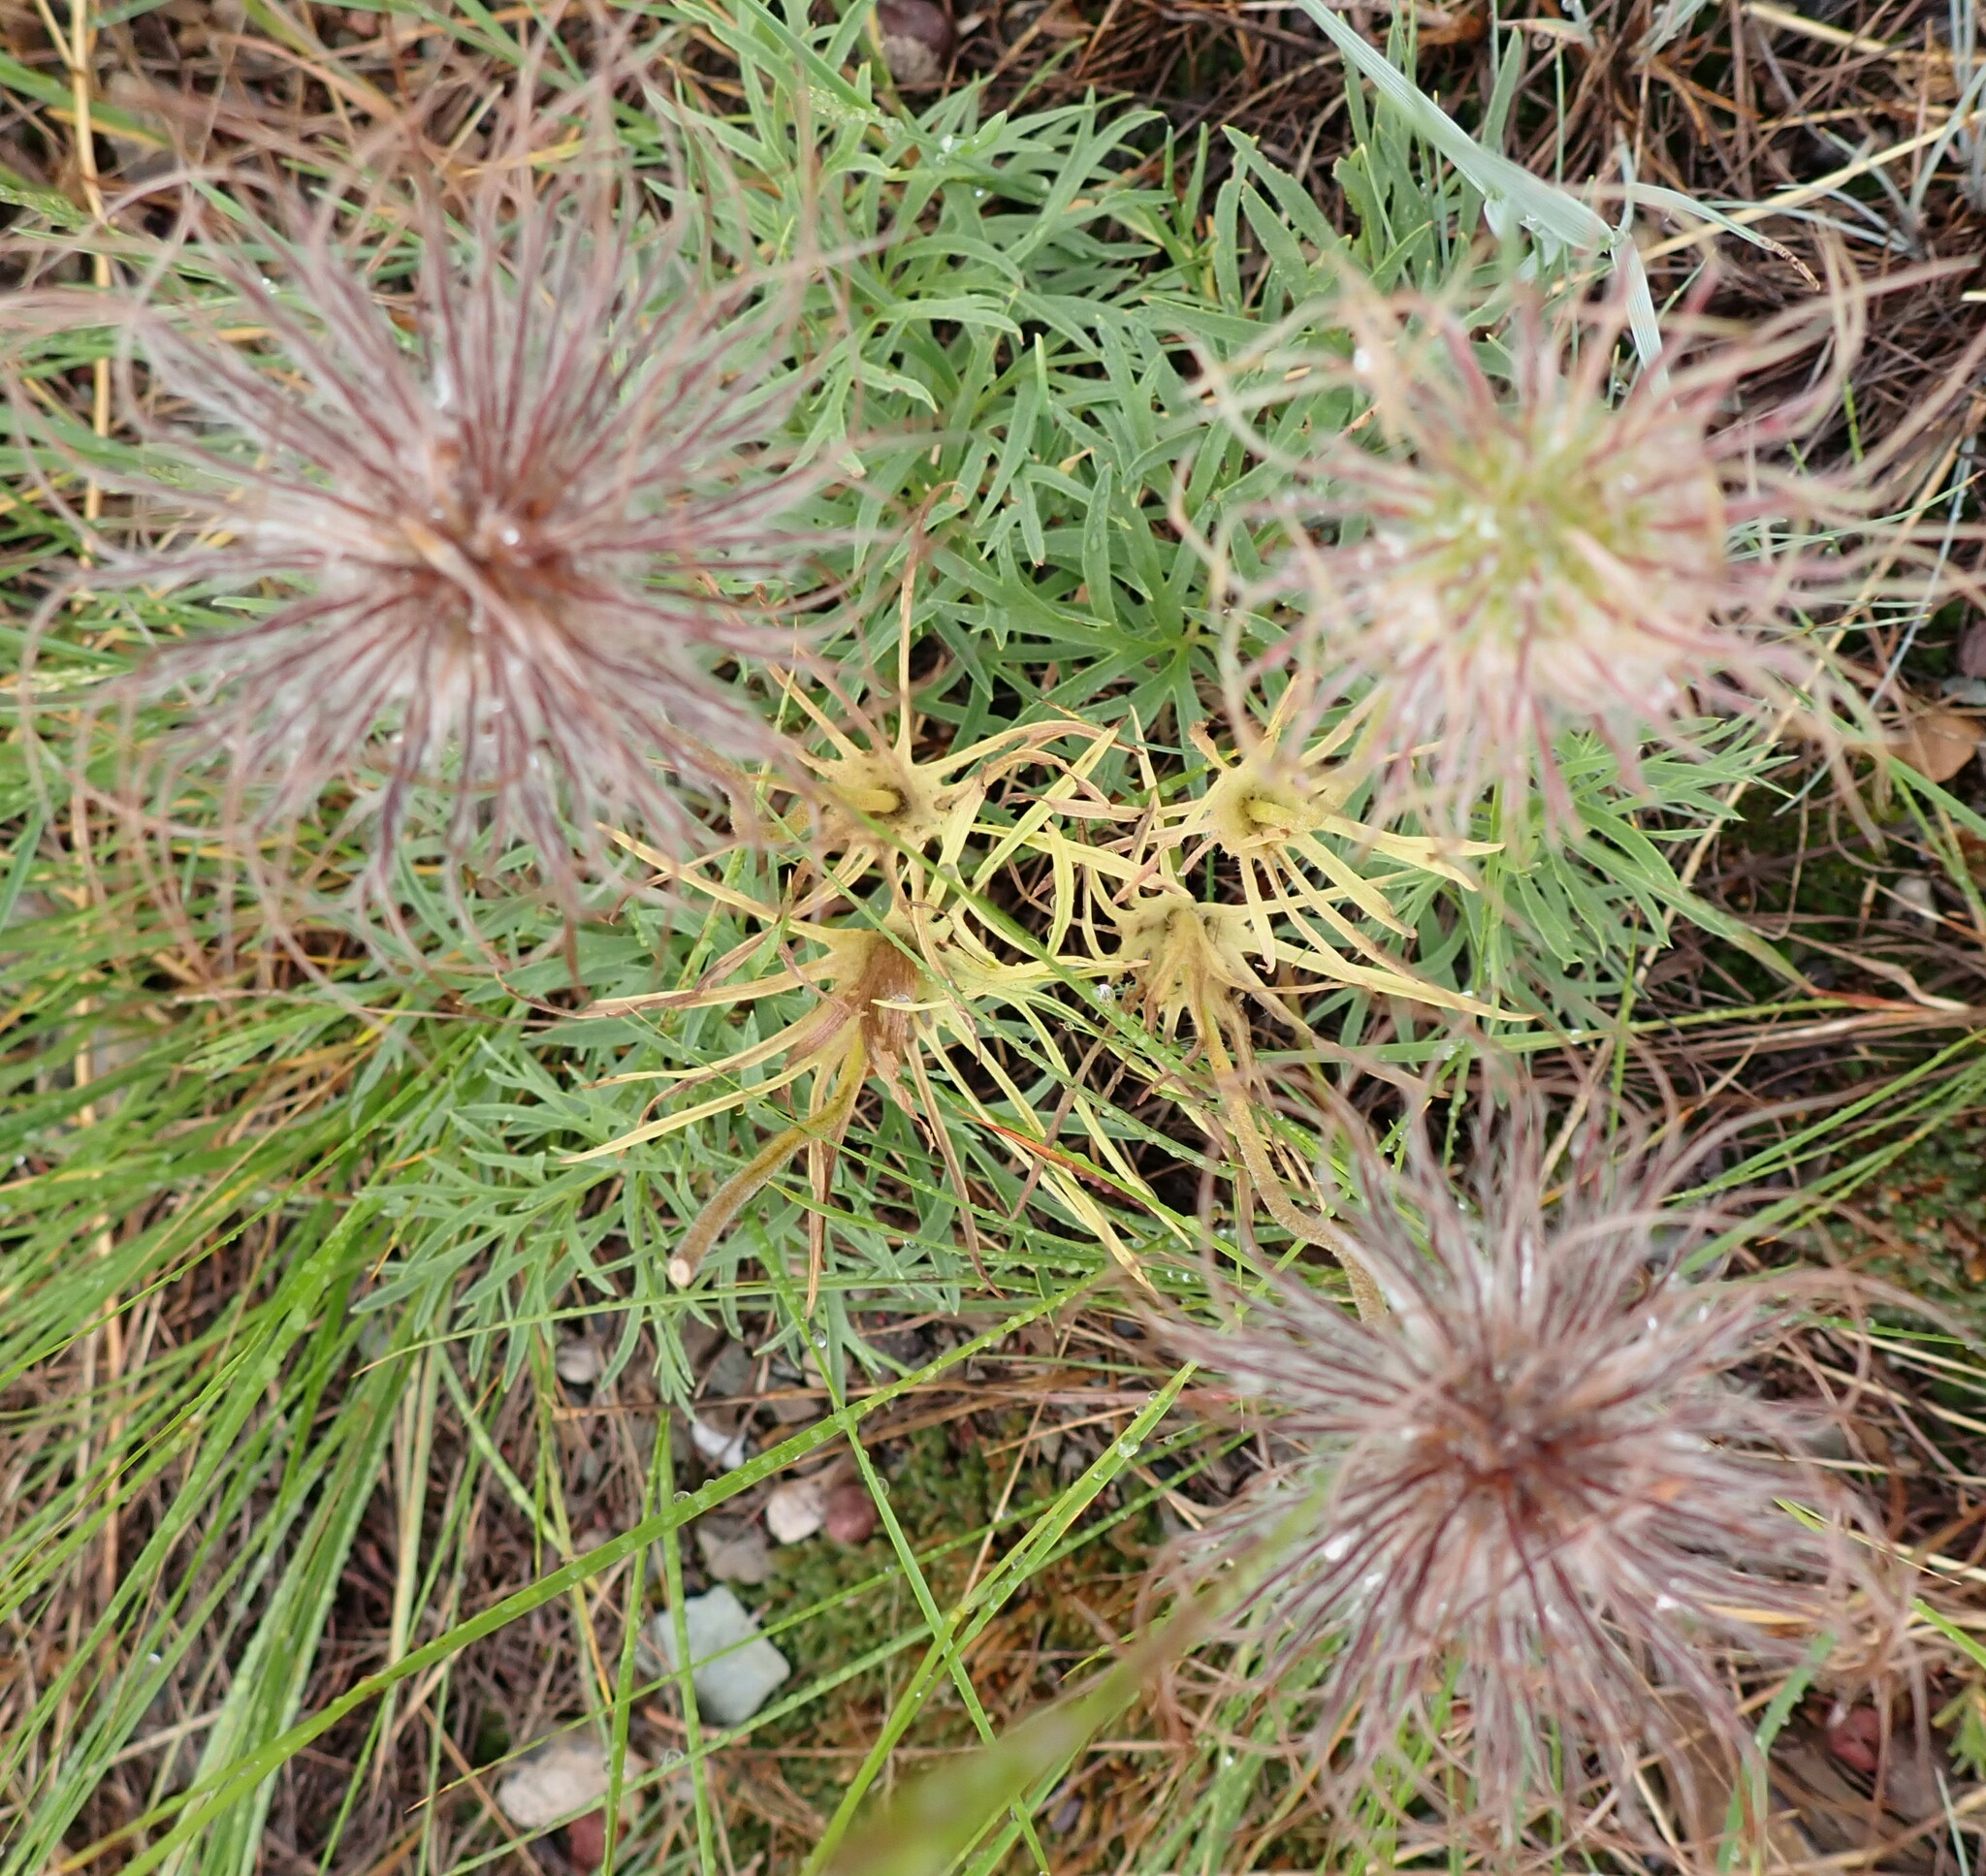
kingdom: Plantae
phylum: Tracheophyta
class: Magnoliopsida
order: Ranunculales
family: Ranunculaceae
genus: Pulsatilla
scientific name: Pulsatilla nuttalliana
